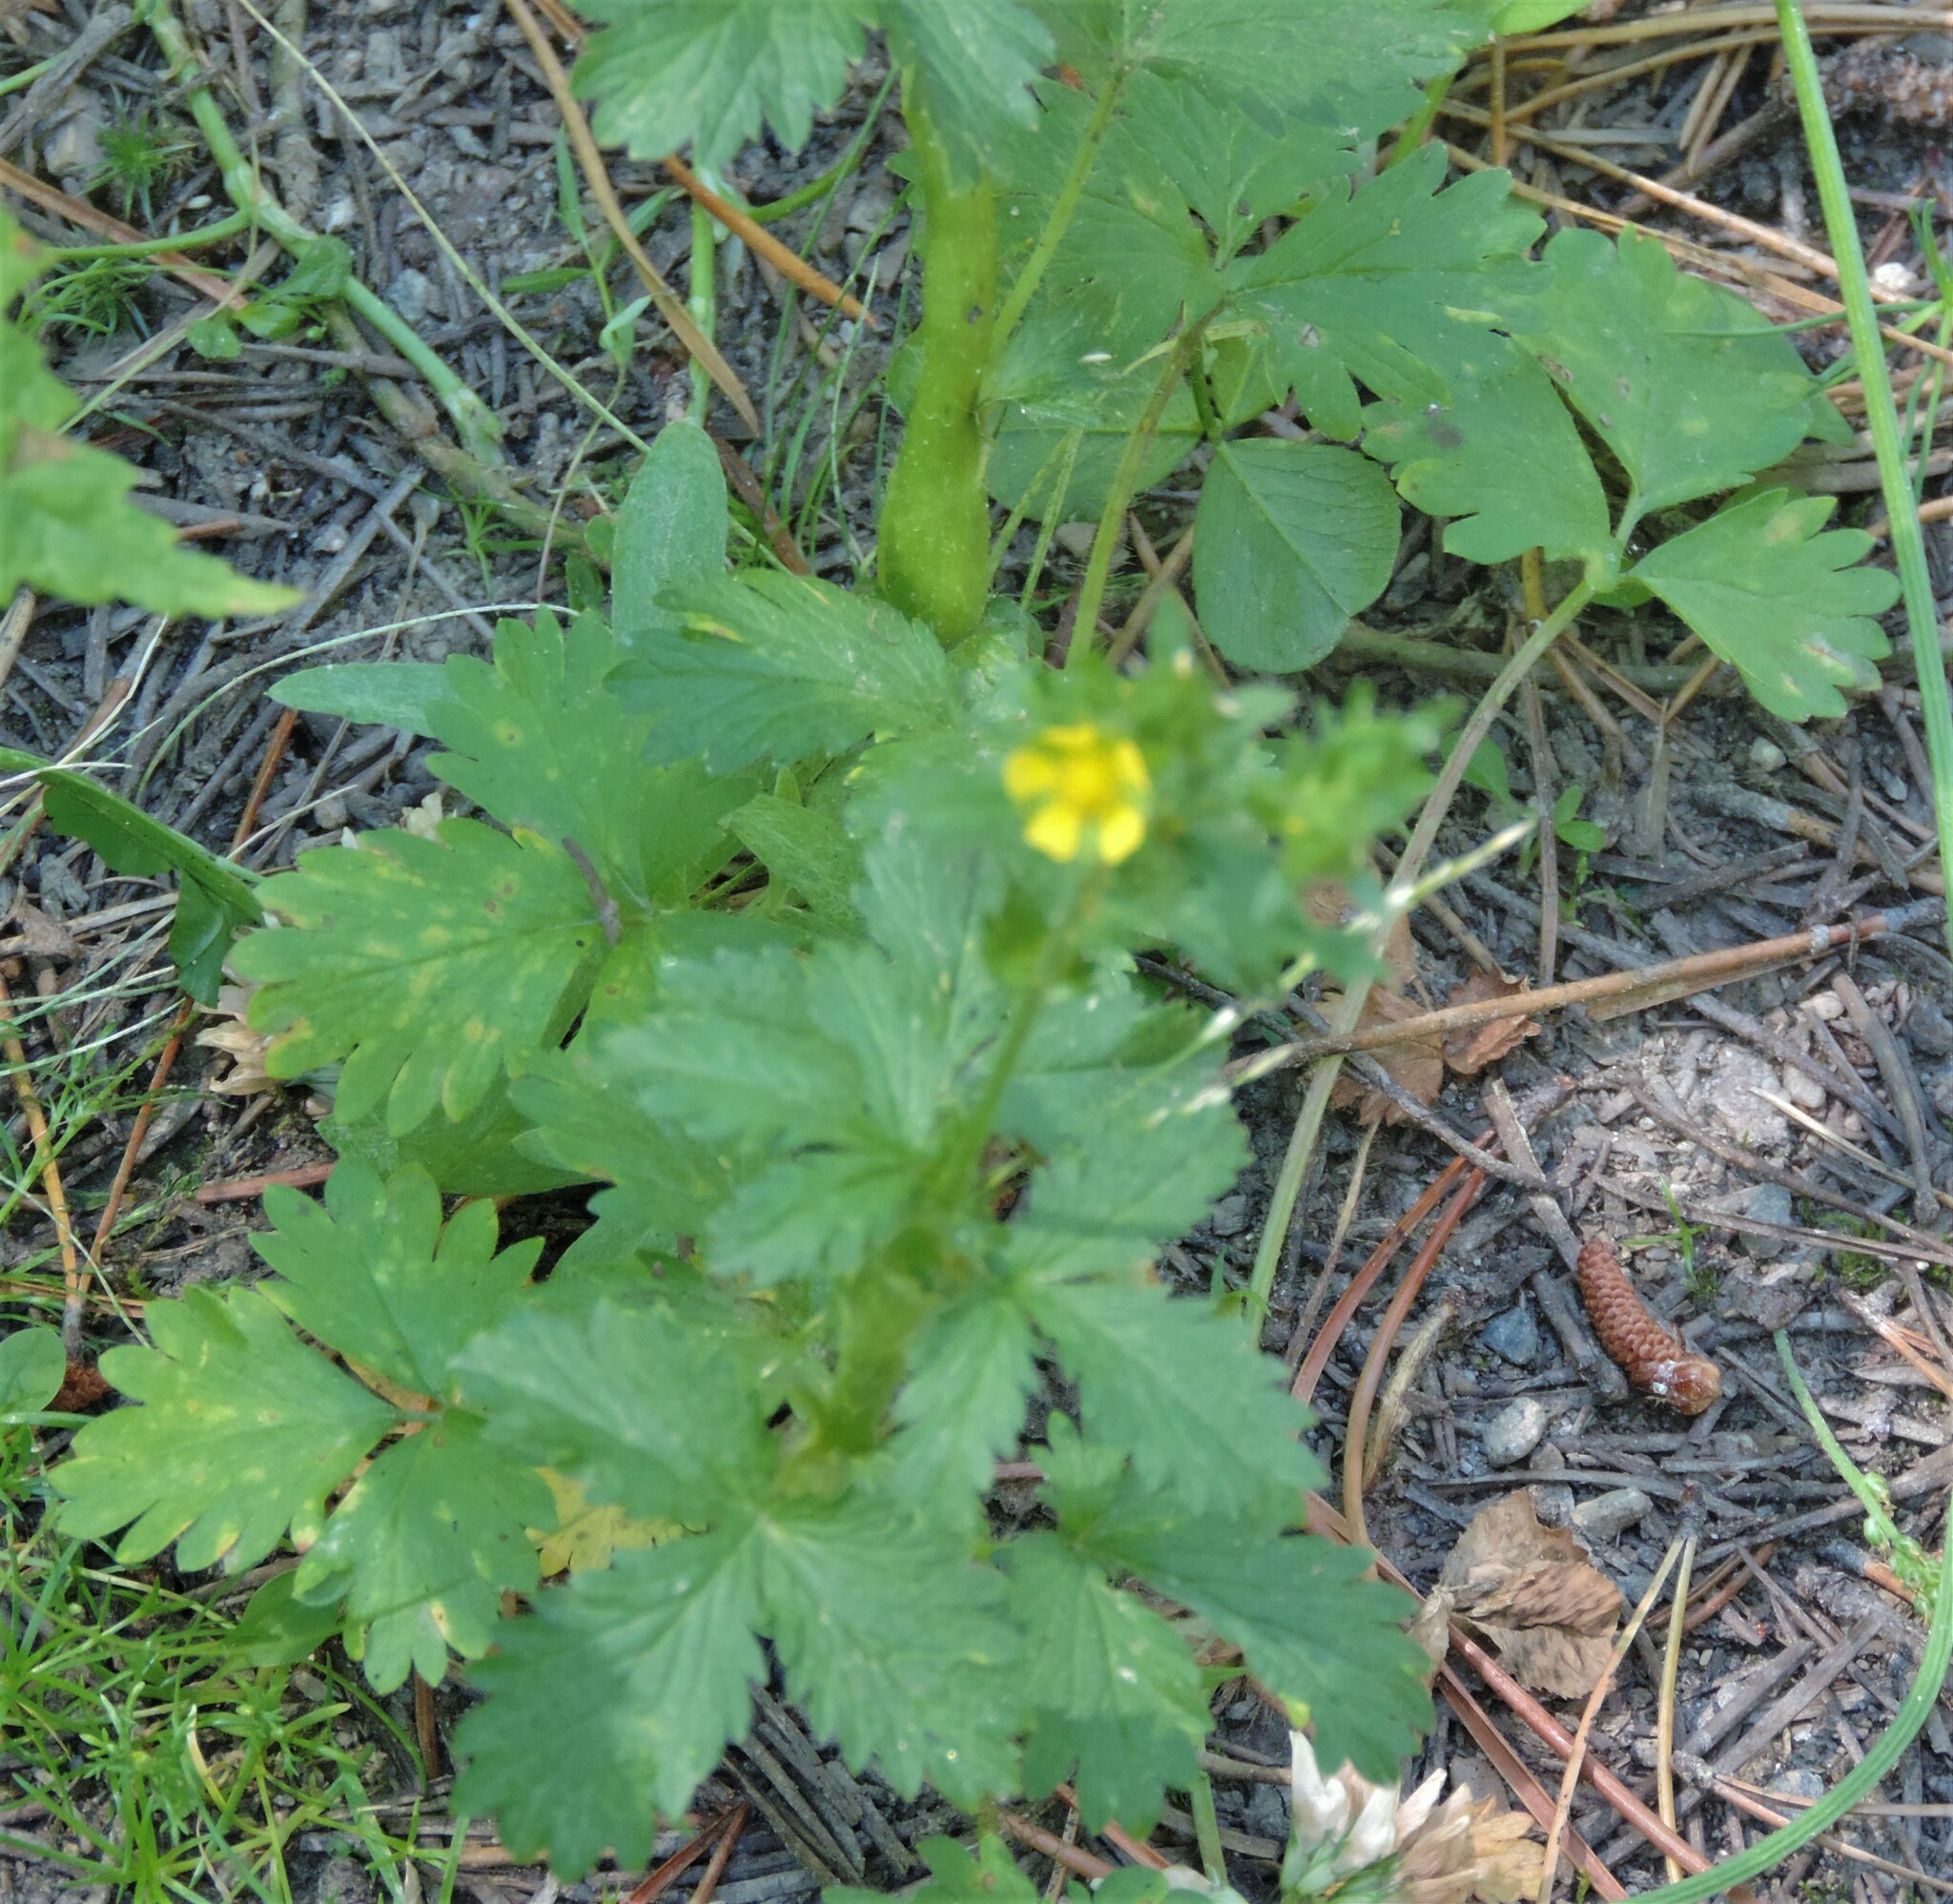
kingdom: Plantae
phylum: Tracheophyta
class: Magnoliopsida
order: Rosales
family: Rosaceae
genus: Potentilla
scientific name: Potentilla norvegica
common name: Ternate-leaved cinquefoil
